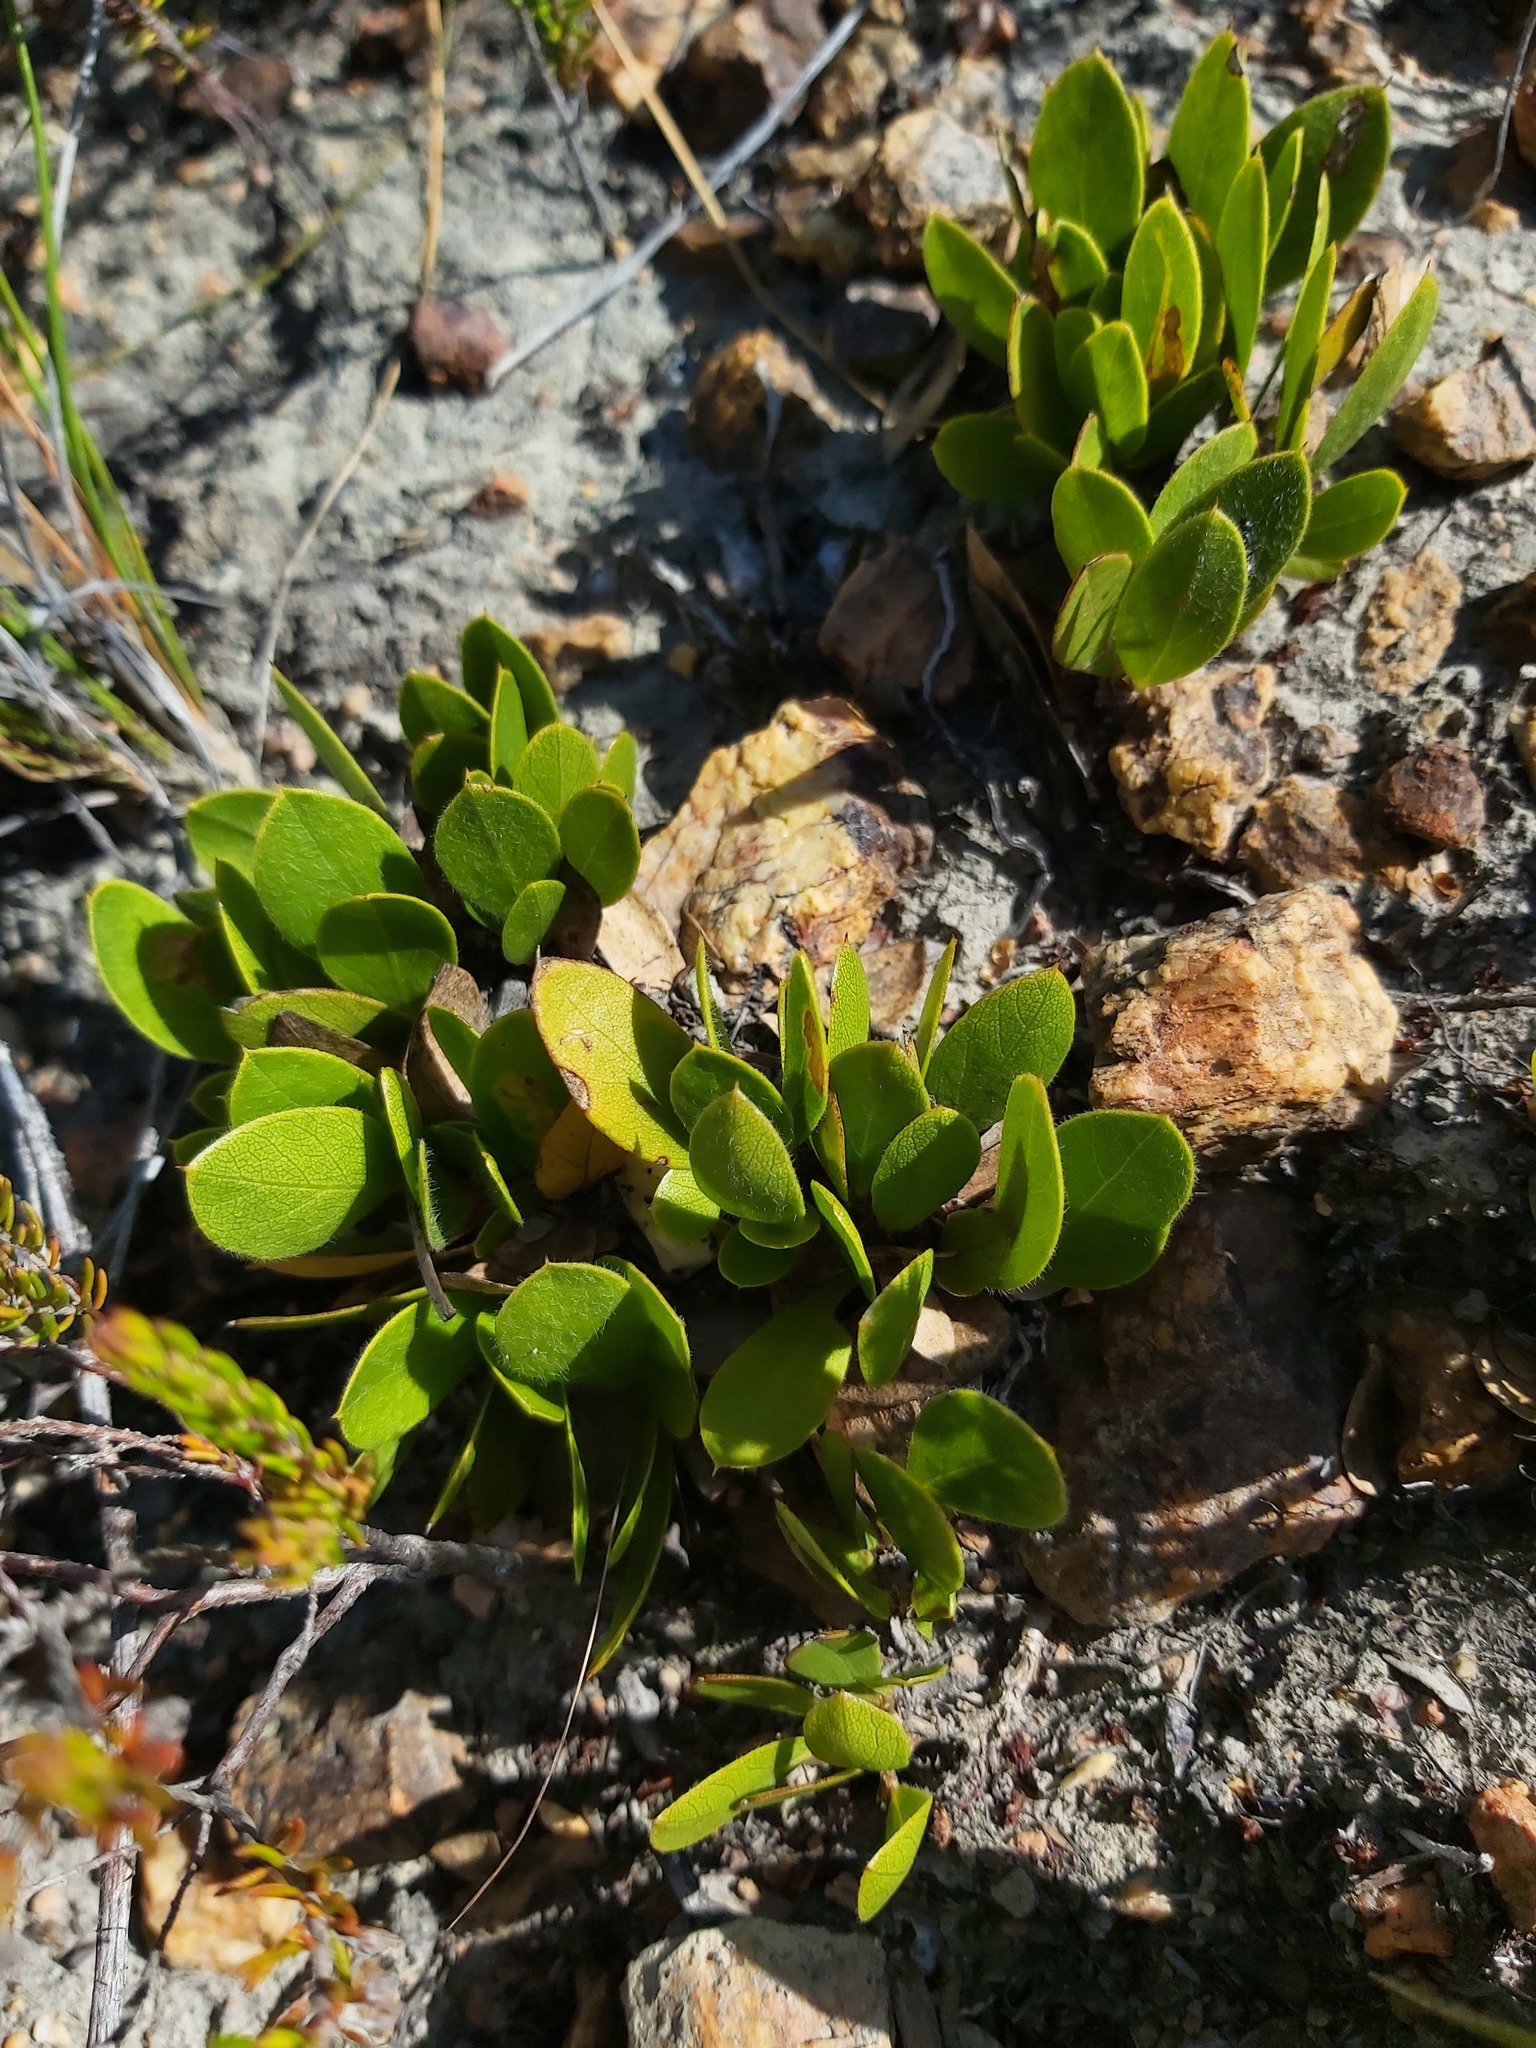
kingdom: Plantae
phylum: Tracheophyta
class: Magnoliopsida
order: Fabales
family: Fabaceae
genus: Psoralea
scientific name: Psoralea rotundifolia
